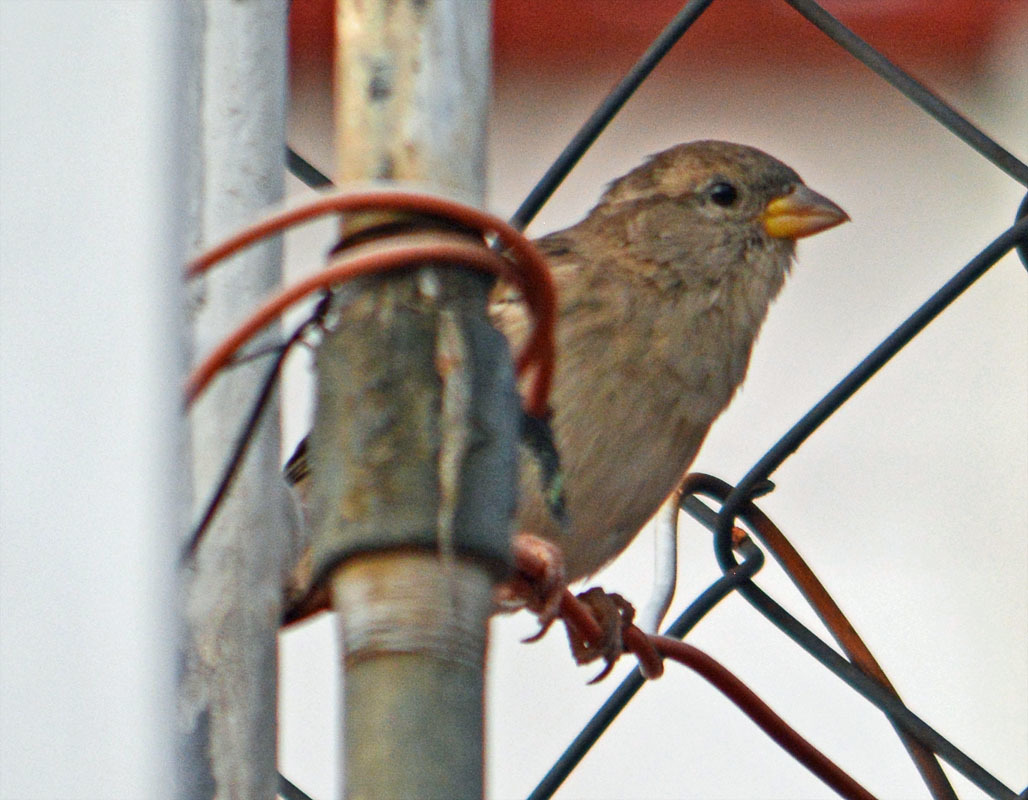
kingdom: Animalia
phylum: Chordata
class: Aves
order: Passeriformes
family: Passeridae
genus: Passer
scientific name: Passer domesticus
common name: House sparrow
